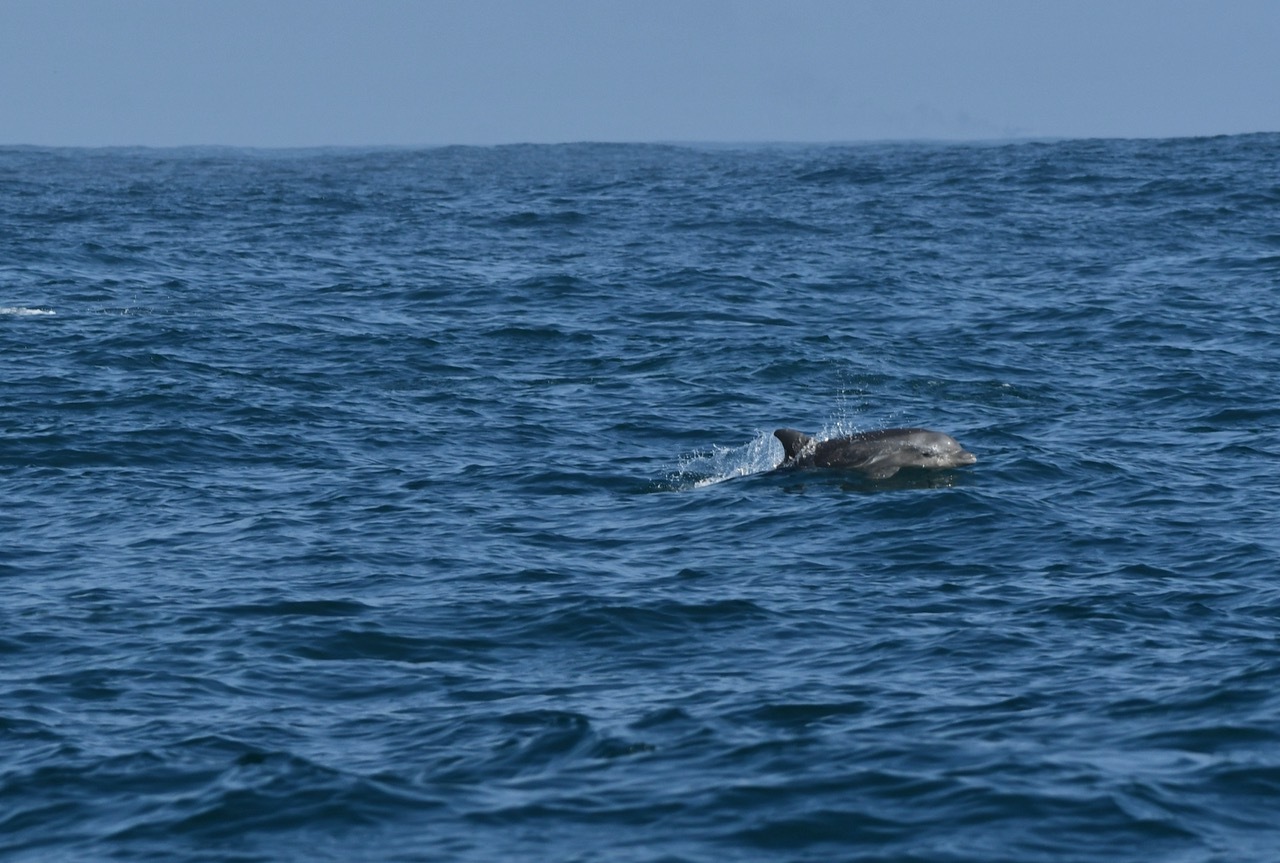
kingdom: Animalia
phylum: Chordata
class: Mammalia
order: Cetacea
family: Delphinidae
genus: Tursiops
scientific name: Tursiops truncatus
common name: Bottlenose dolphin
